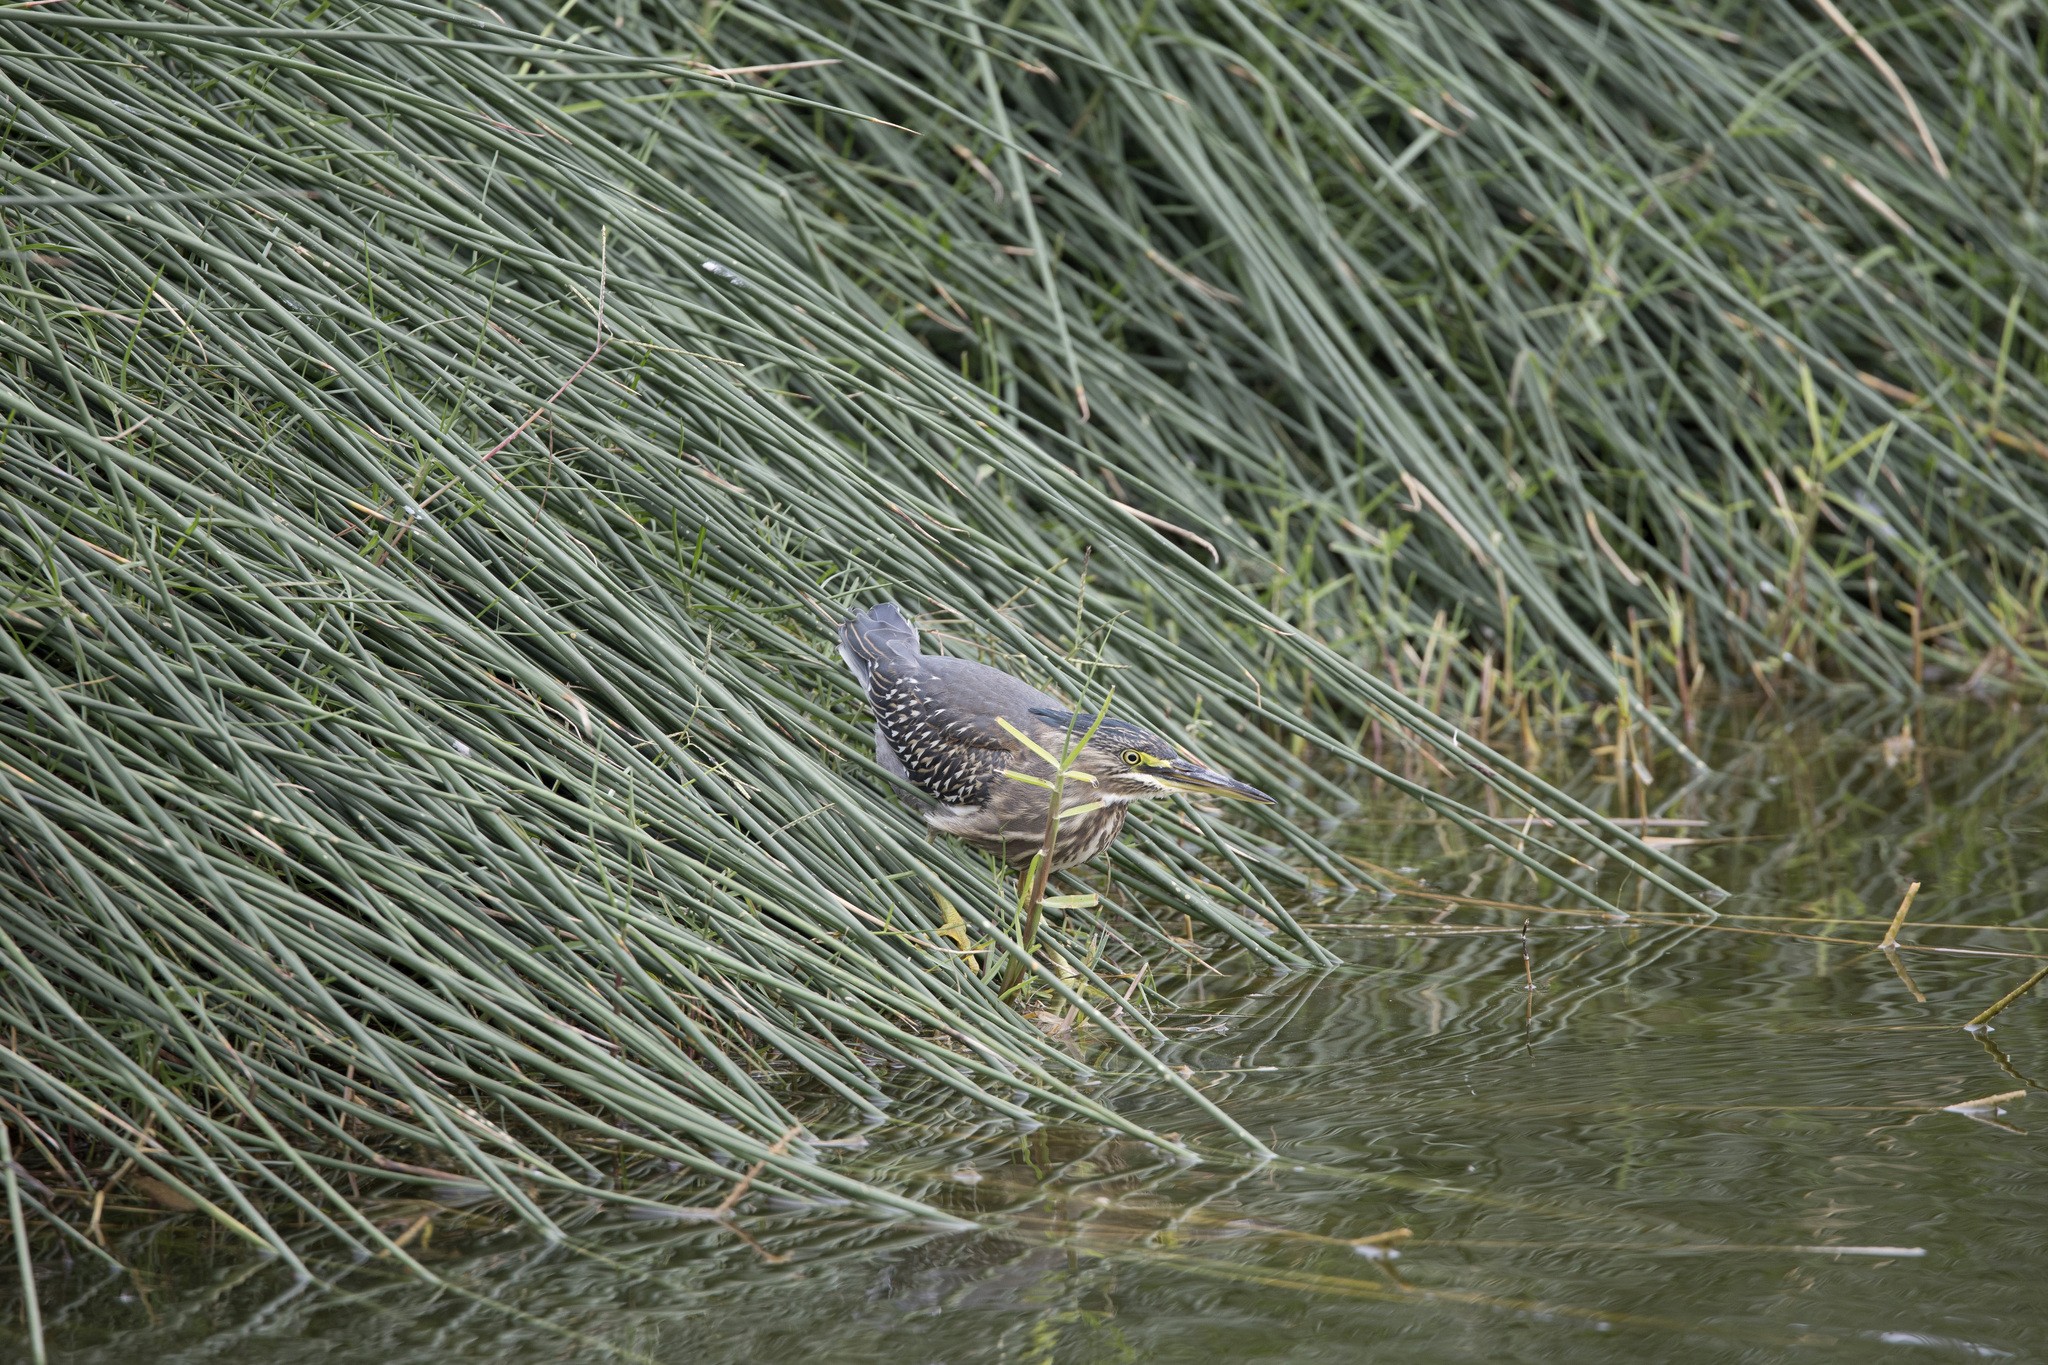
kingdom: Animalia
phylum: Chordata
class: Aves
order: Pelecaniformes
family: Ardeidae
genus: Butorides
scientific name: Butorides striata
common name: Striated heron
